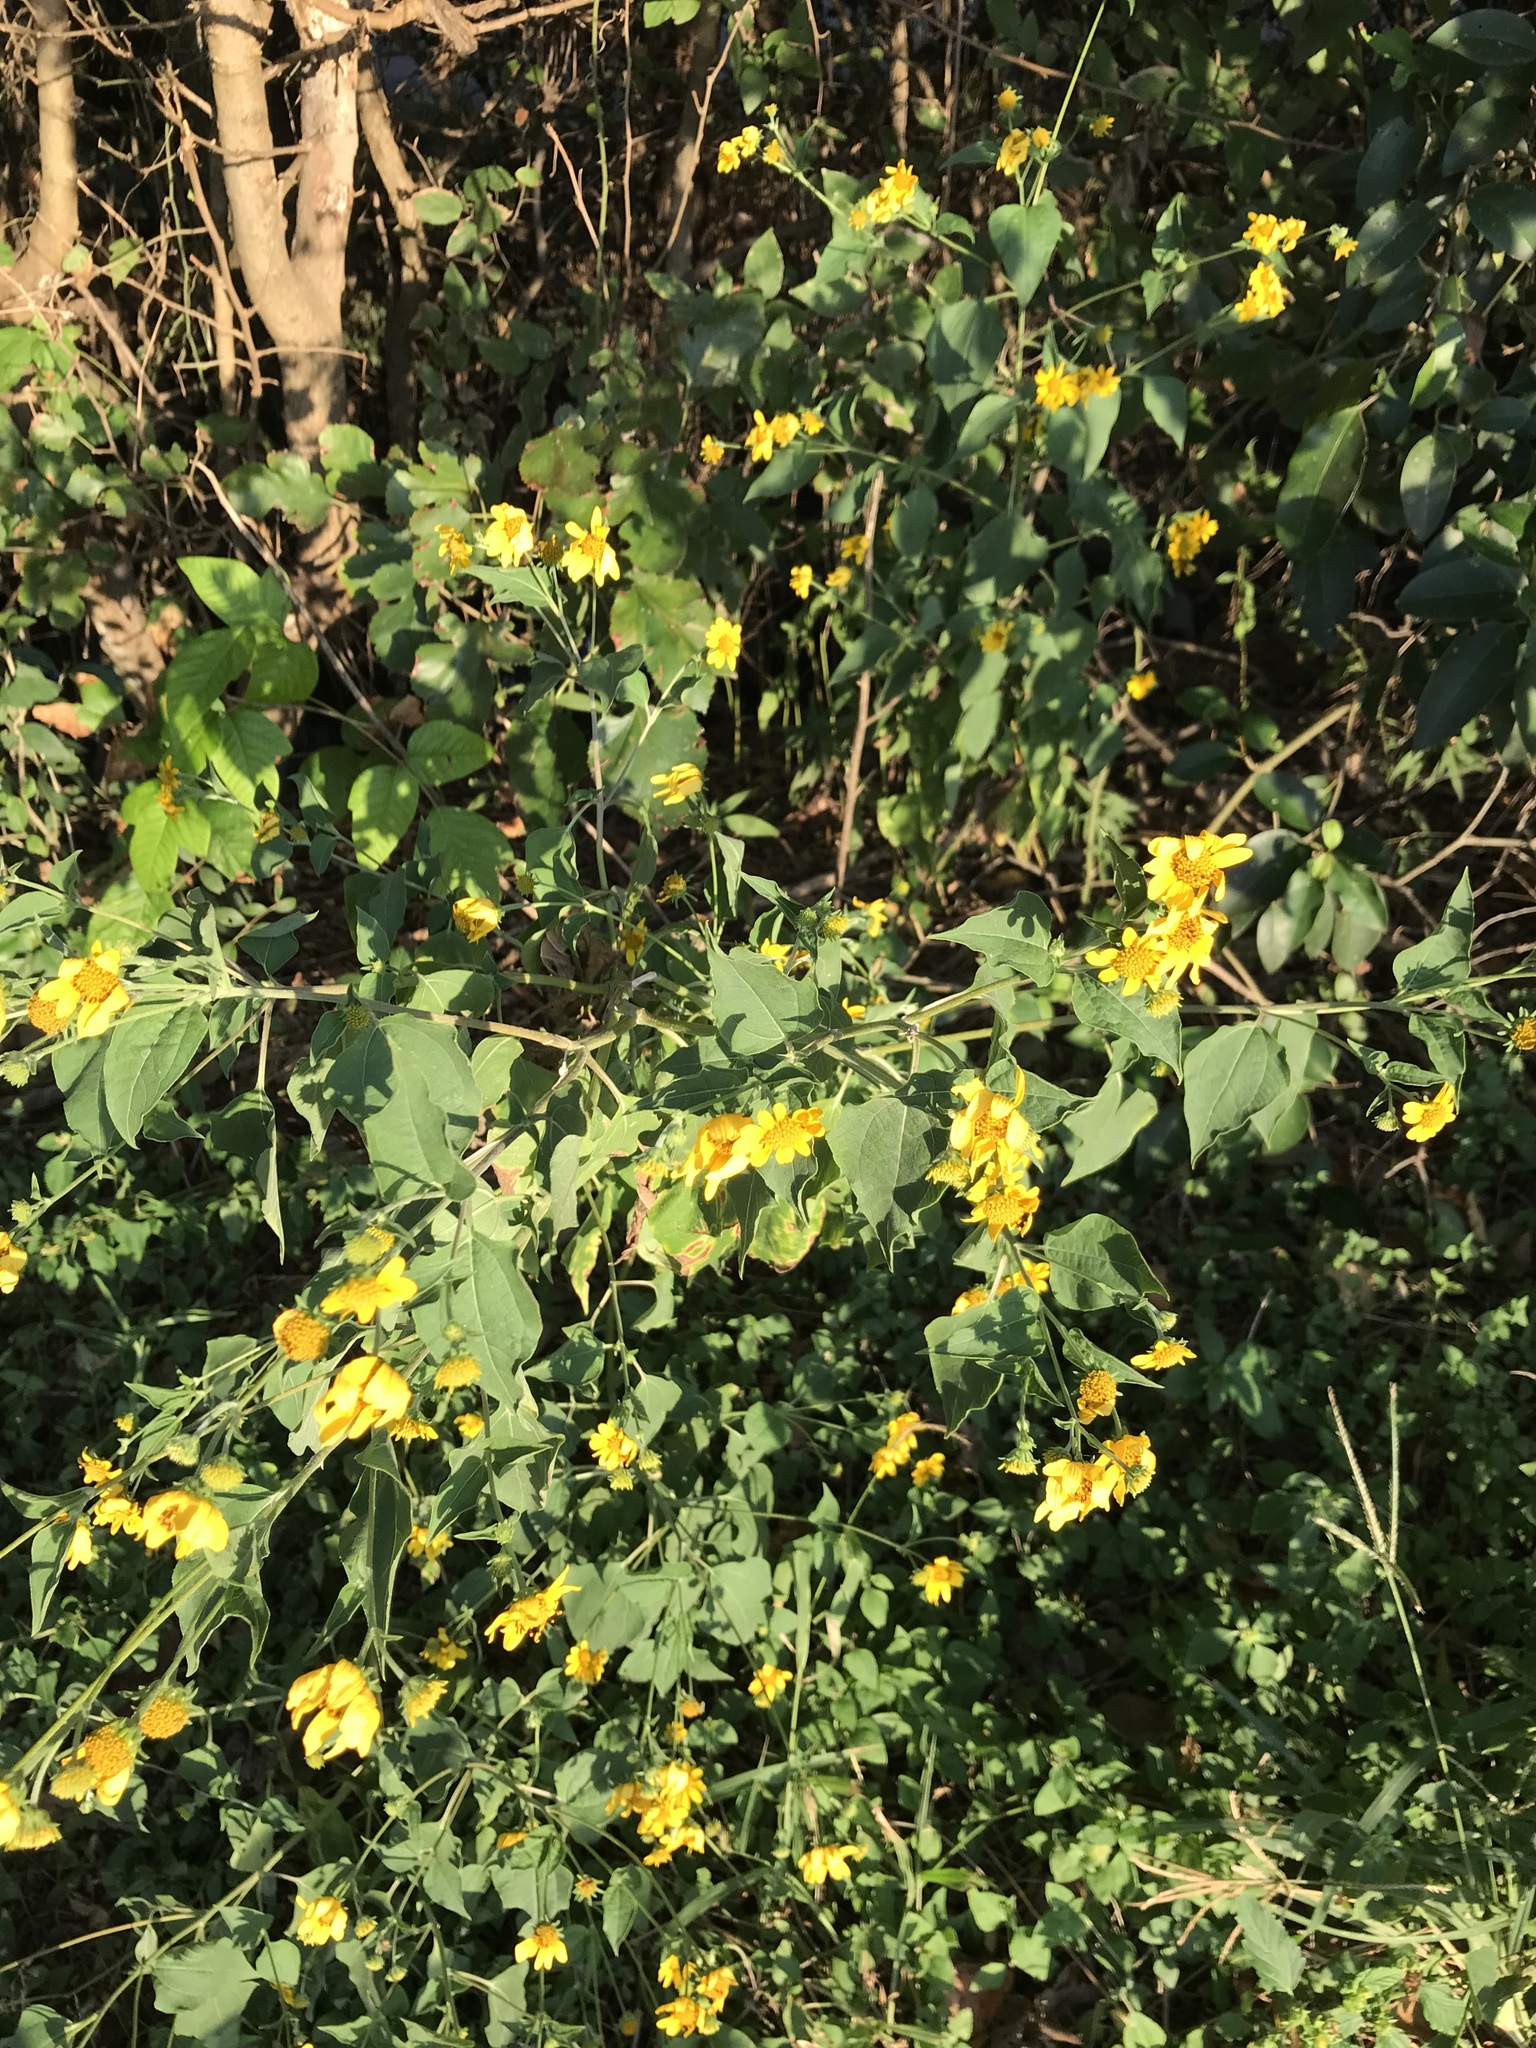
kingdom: Plantae
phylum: Tracheophyta
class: Magnoliopsida
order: Asterales
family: Asteraceae
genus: Viguiera
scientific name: Viguiera dentata
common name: Toothleaf
